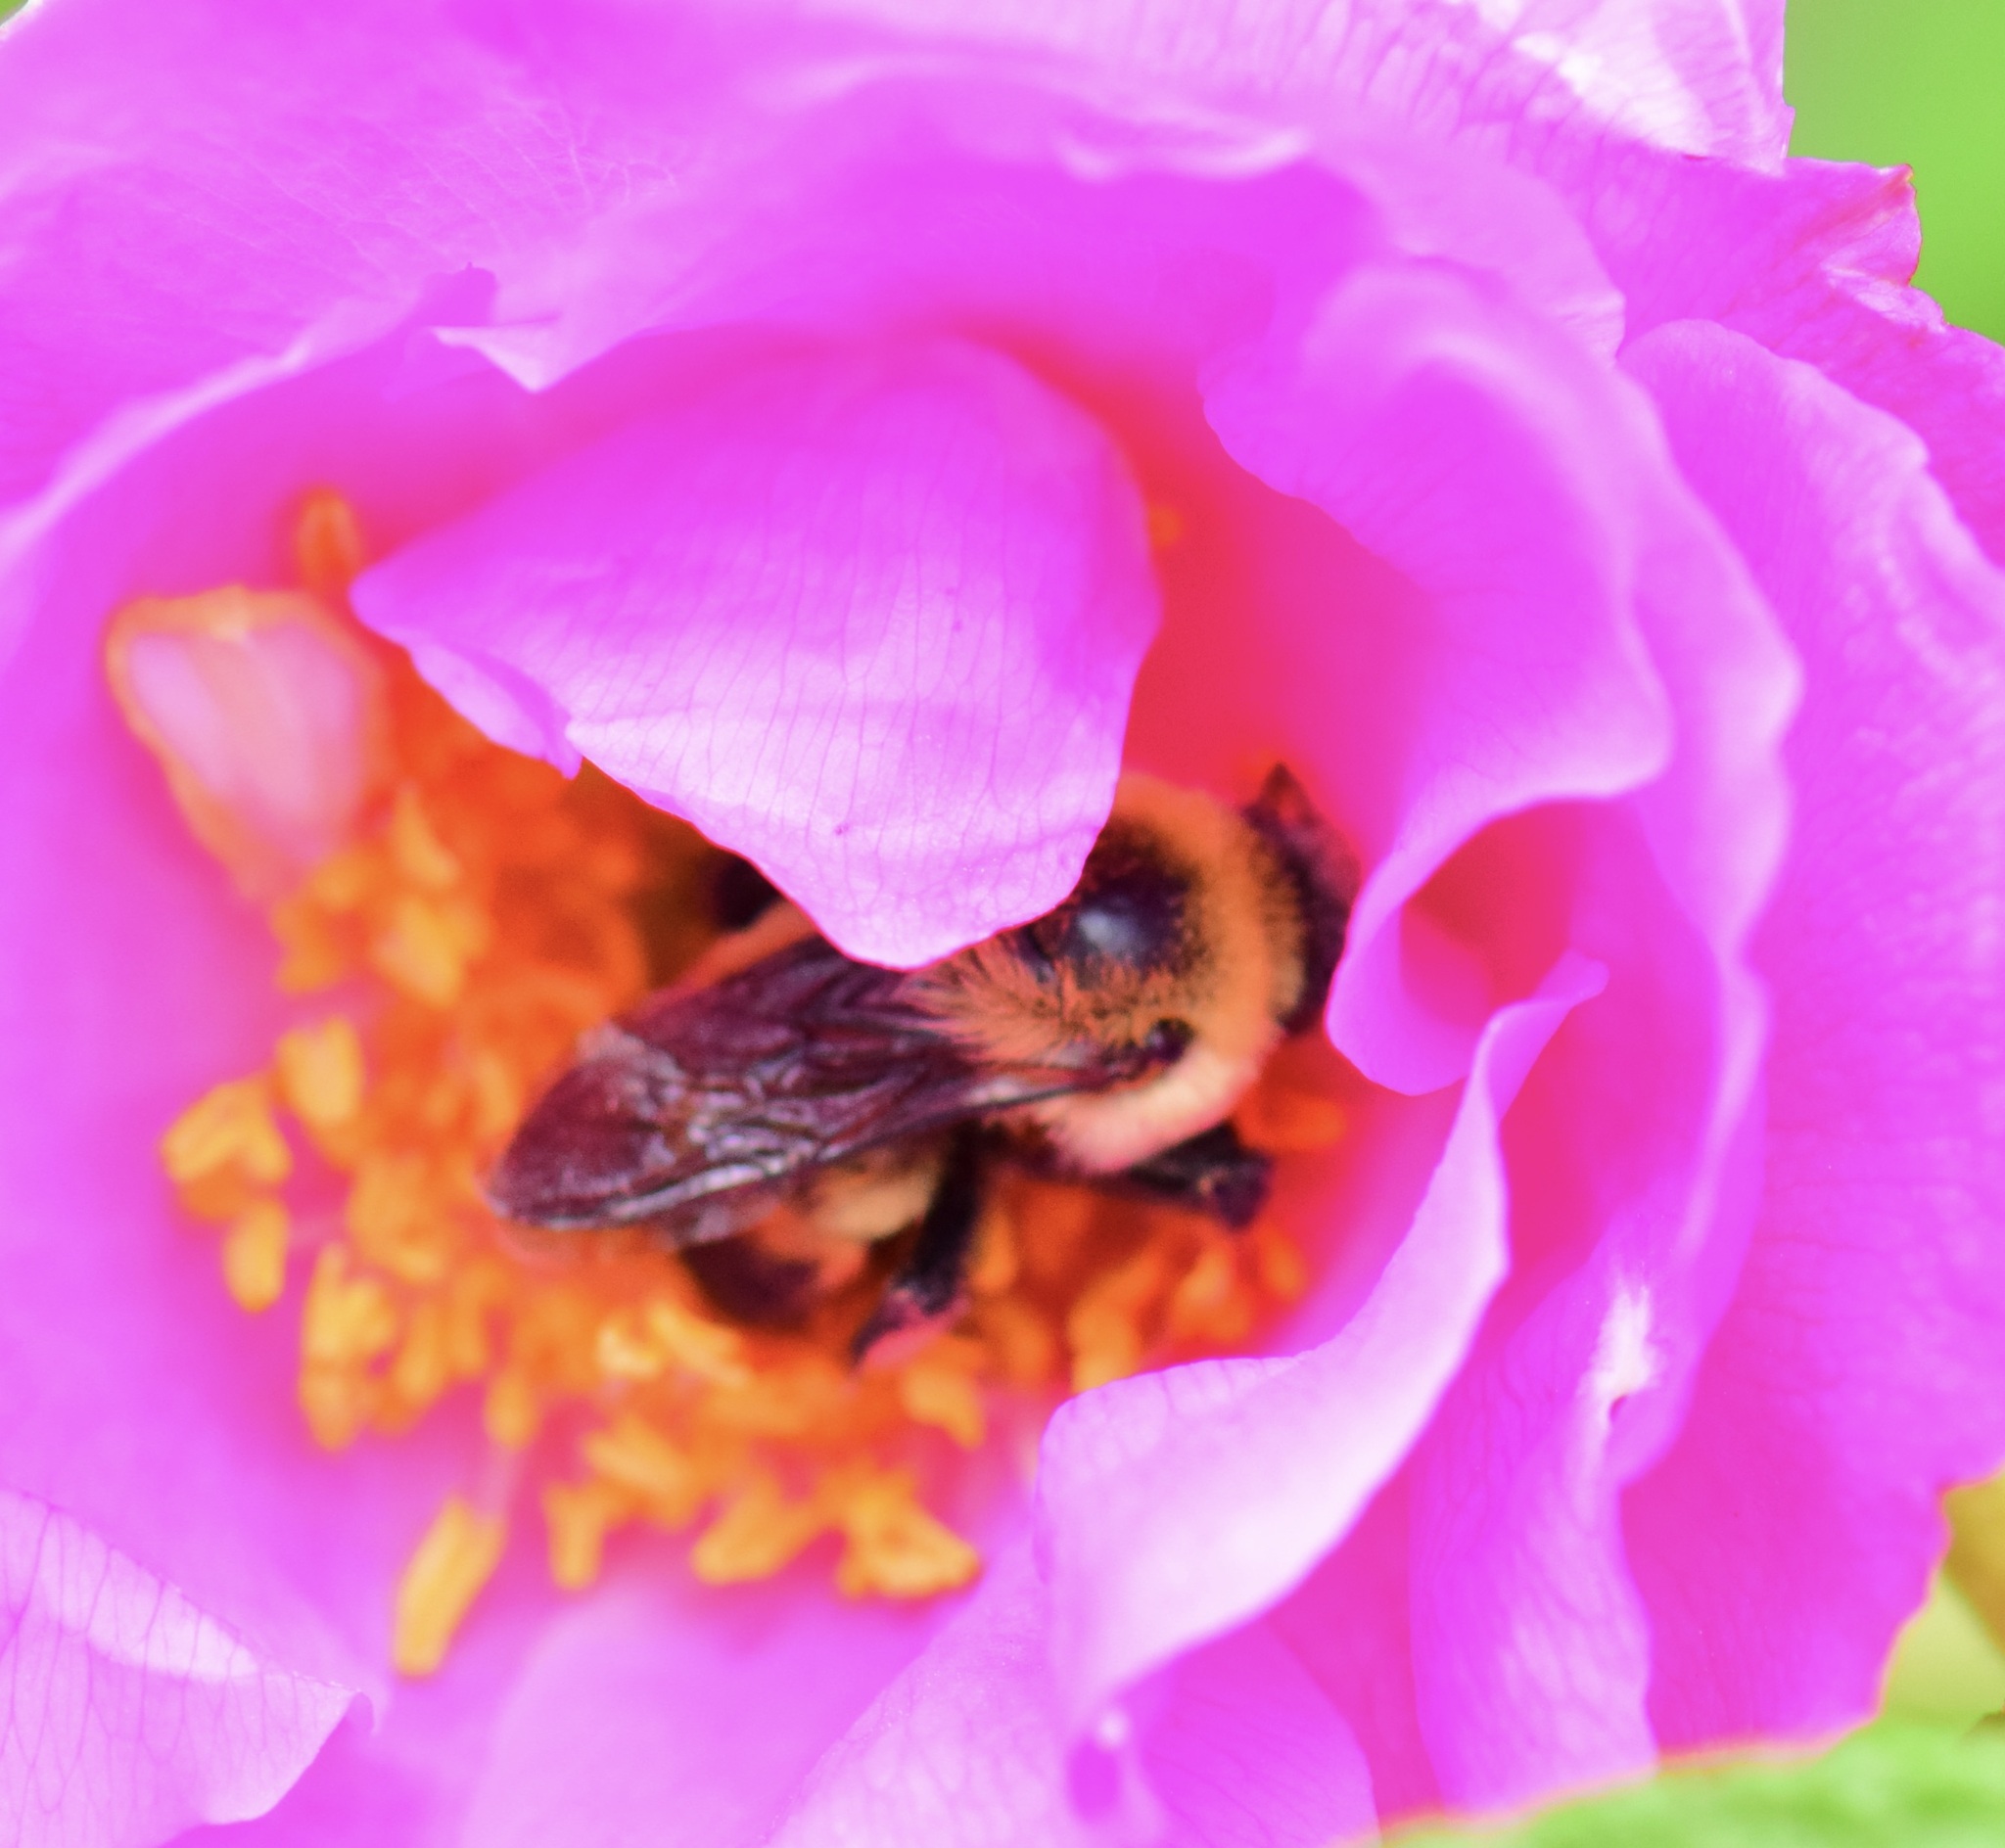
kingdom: Animalia
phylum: Arthropoda
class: Insecta
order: Hymenoptera
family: Apidae
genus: Bombus
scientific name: Bombus griseocollis
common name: Brown-belted bumble bee
